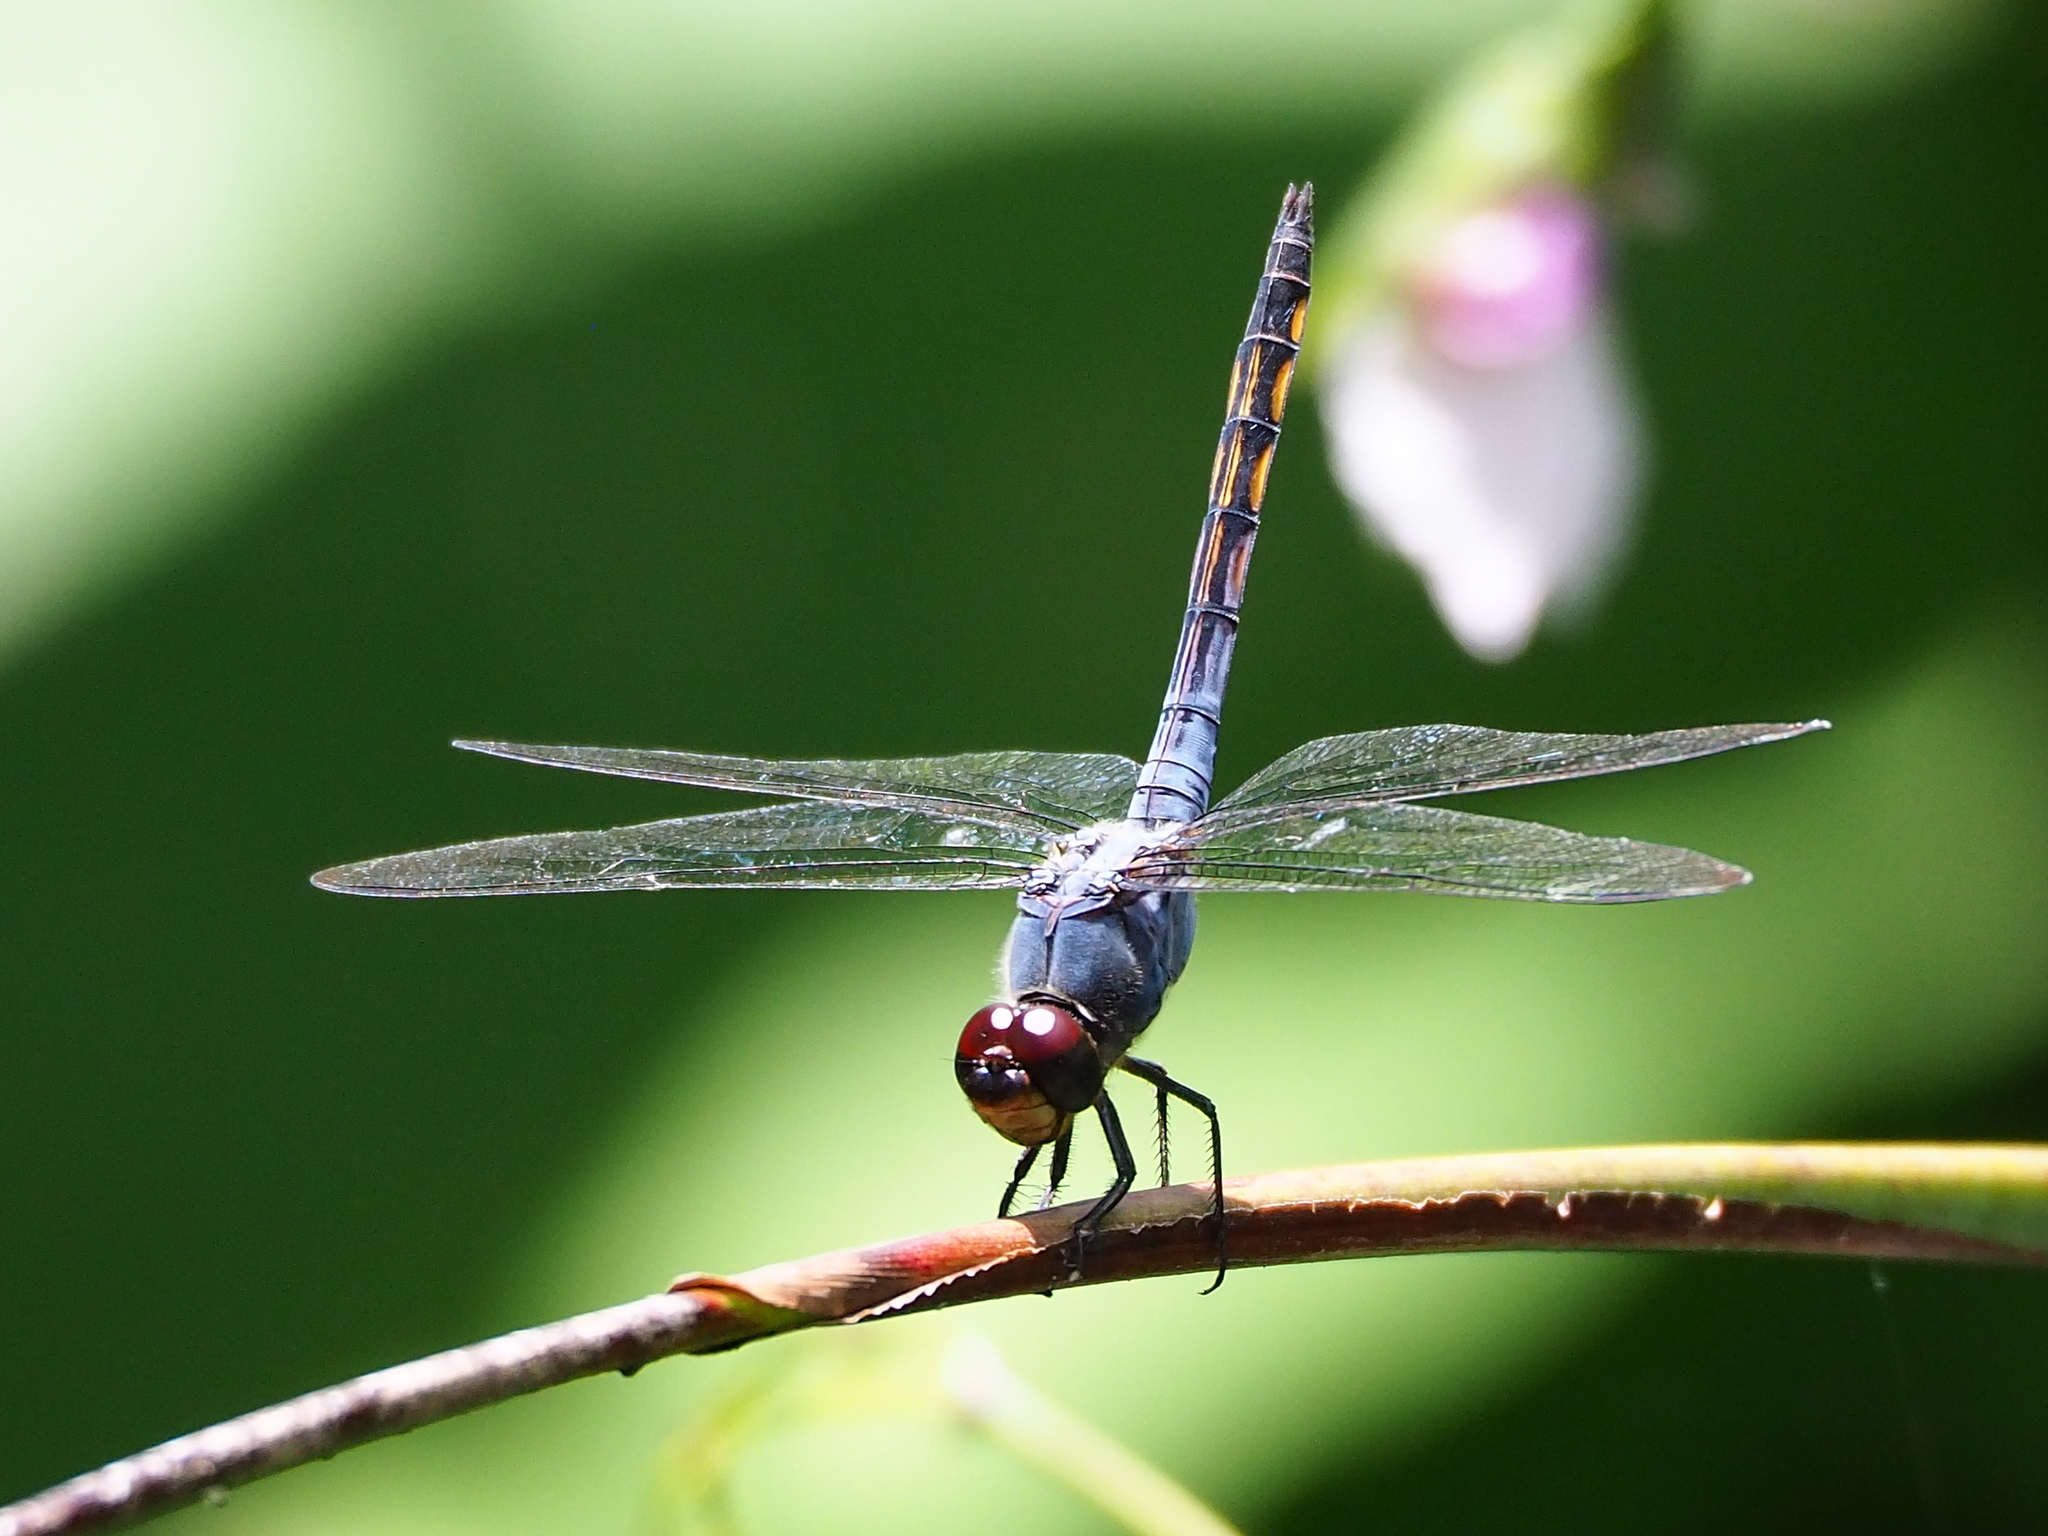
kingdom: Animalia
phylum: Arthropoda
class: Insecta
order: Odonata
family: Libellulidae
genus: Potamarcha
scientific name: Potamarcha congener
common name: Blue chaser
